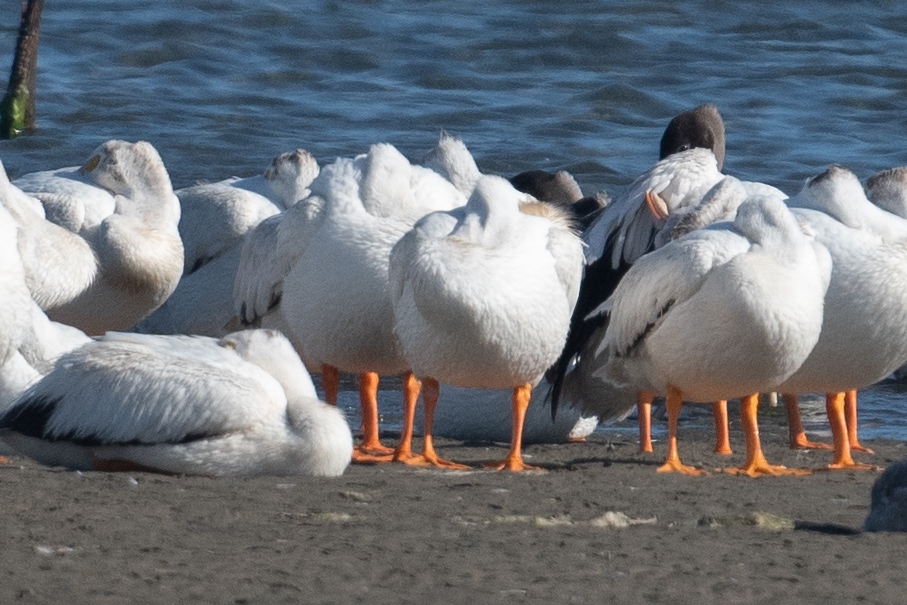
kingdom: Animalia
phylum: Chordata
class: Aves
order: Pelecaniformes
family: Pelecanidae
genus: Pelecanus
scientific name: Pelecanus erythrorhynchos
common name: American white pelican
